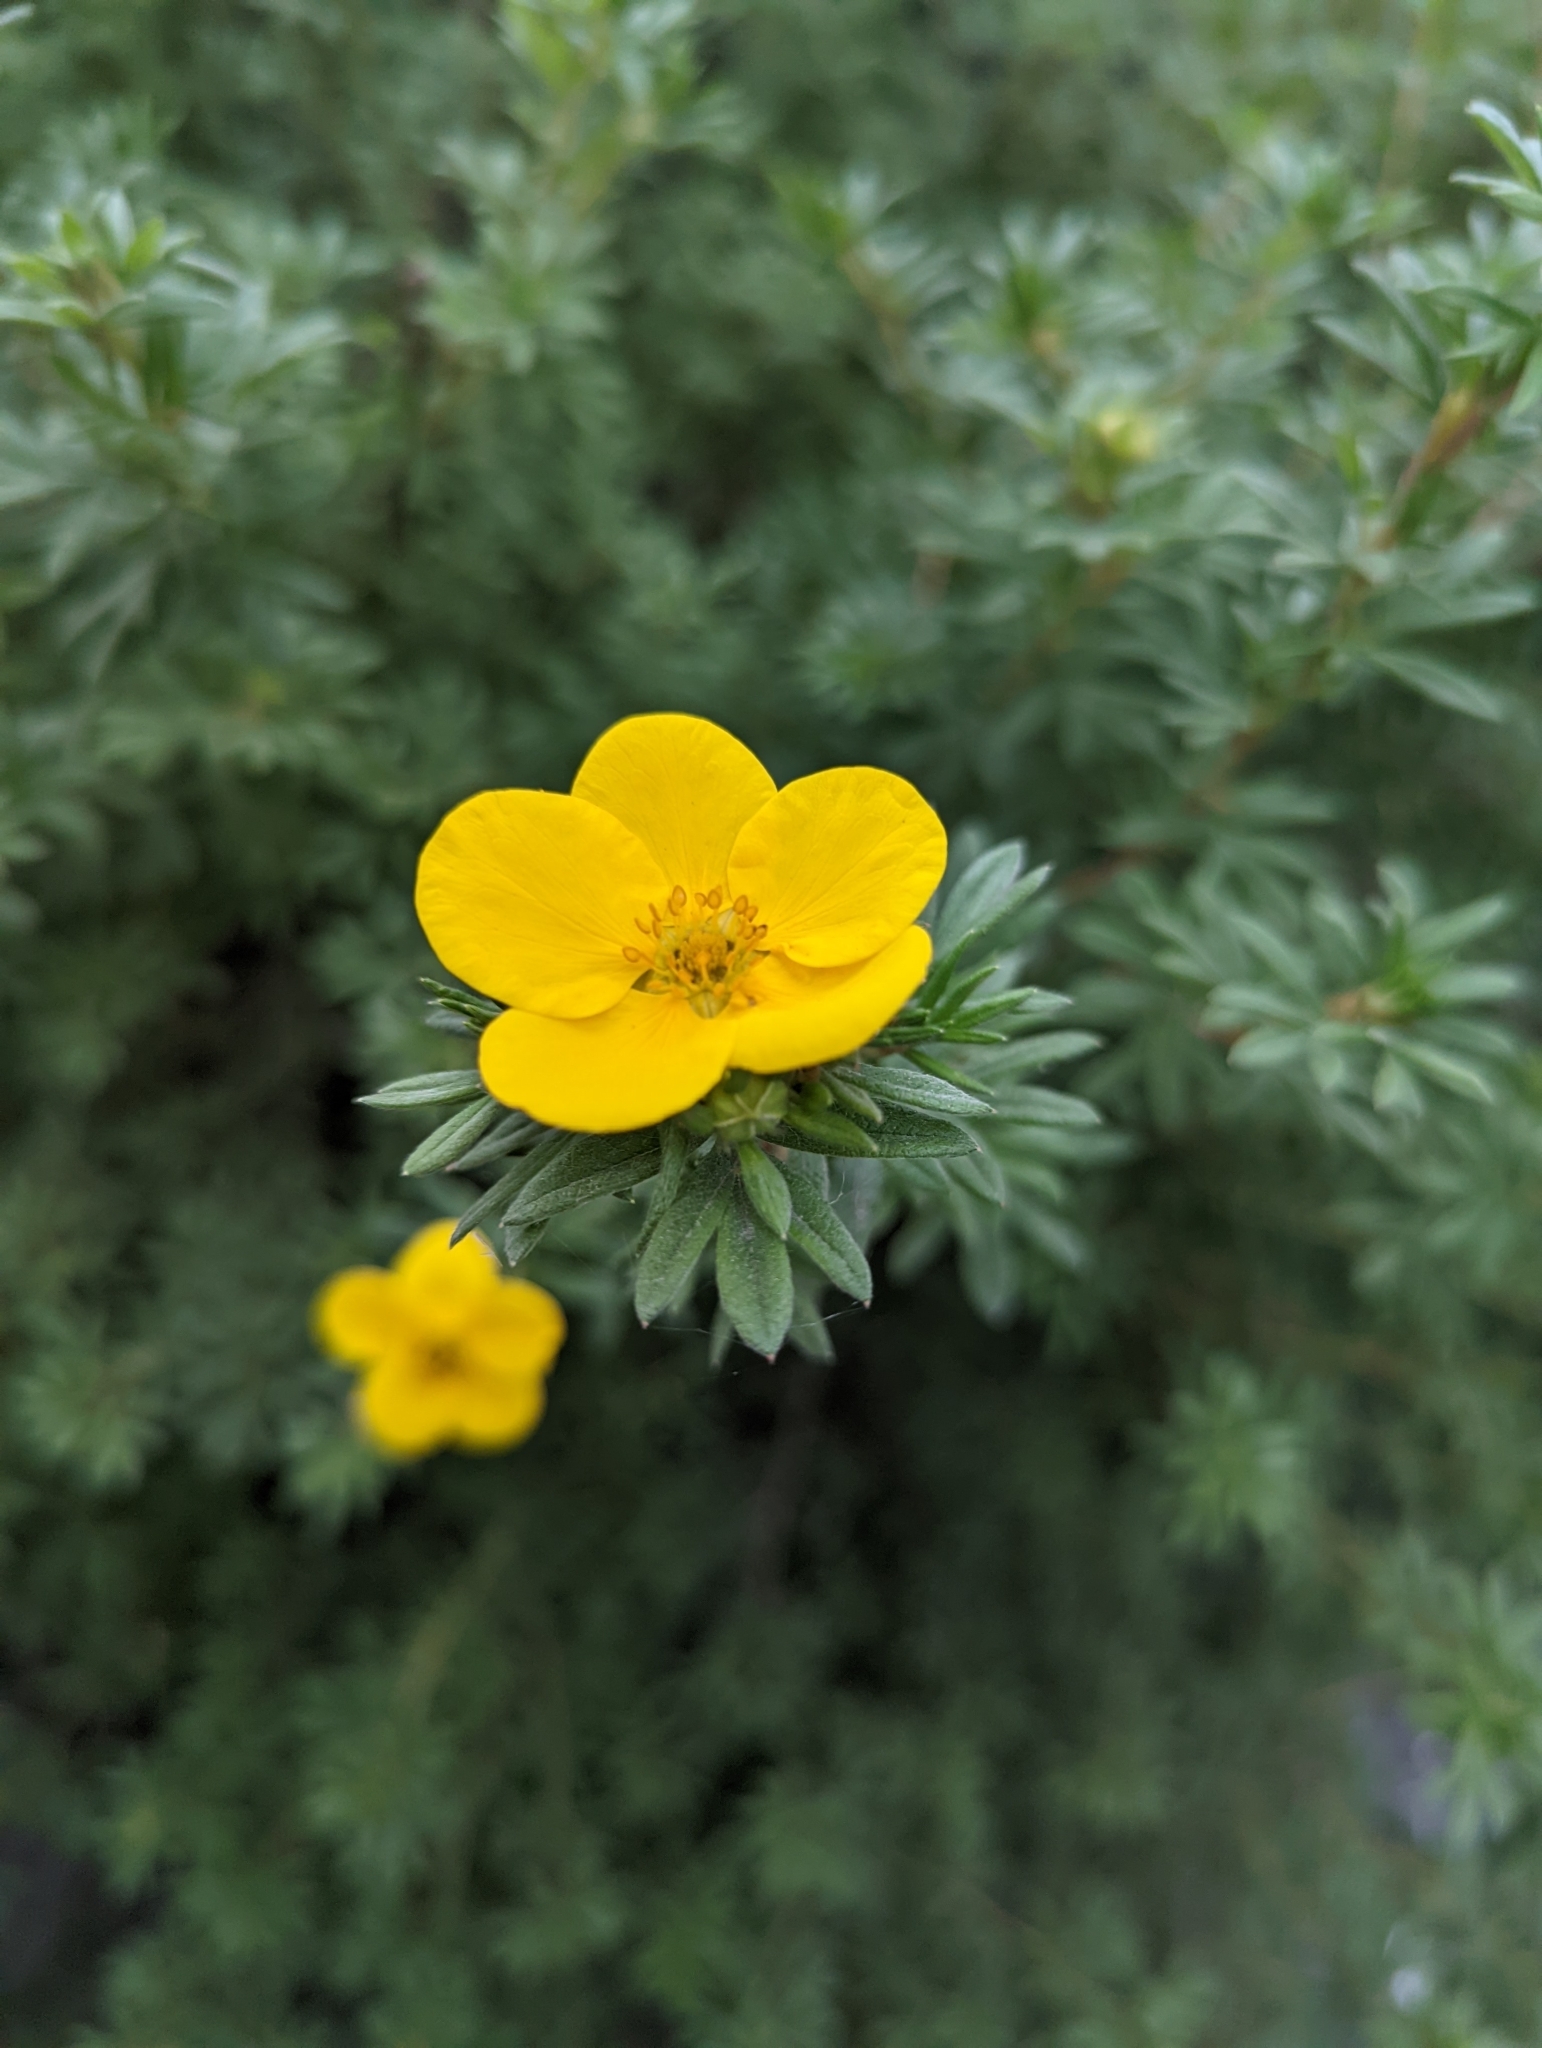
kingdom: Plantae
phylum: Tracheophyta
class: Magnoliopsida
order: Rosales
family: Rosaceae
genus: Dasiphora
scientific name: Dasiphora fruticosa
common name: Shrubby cinquefoil
